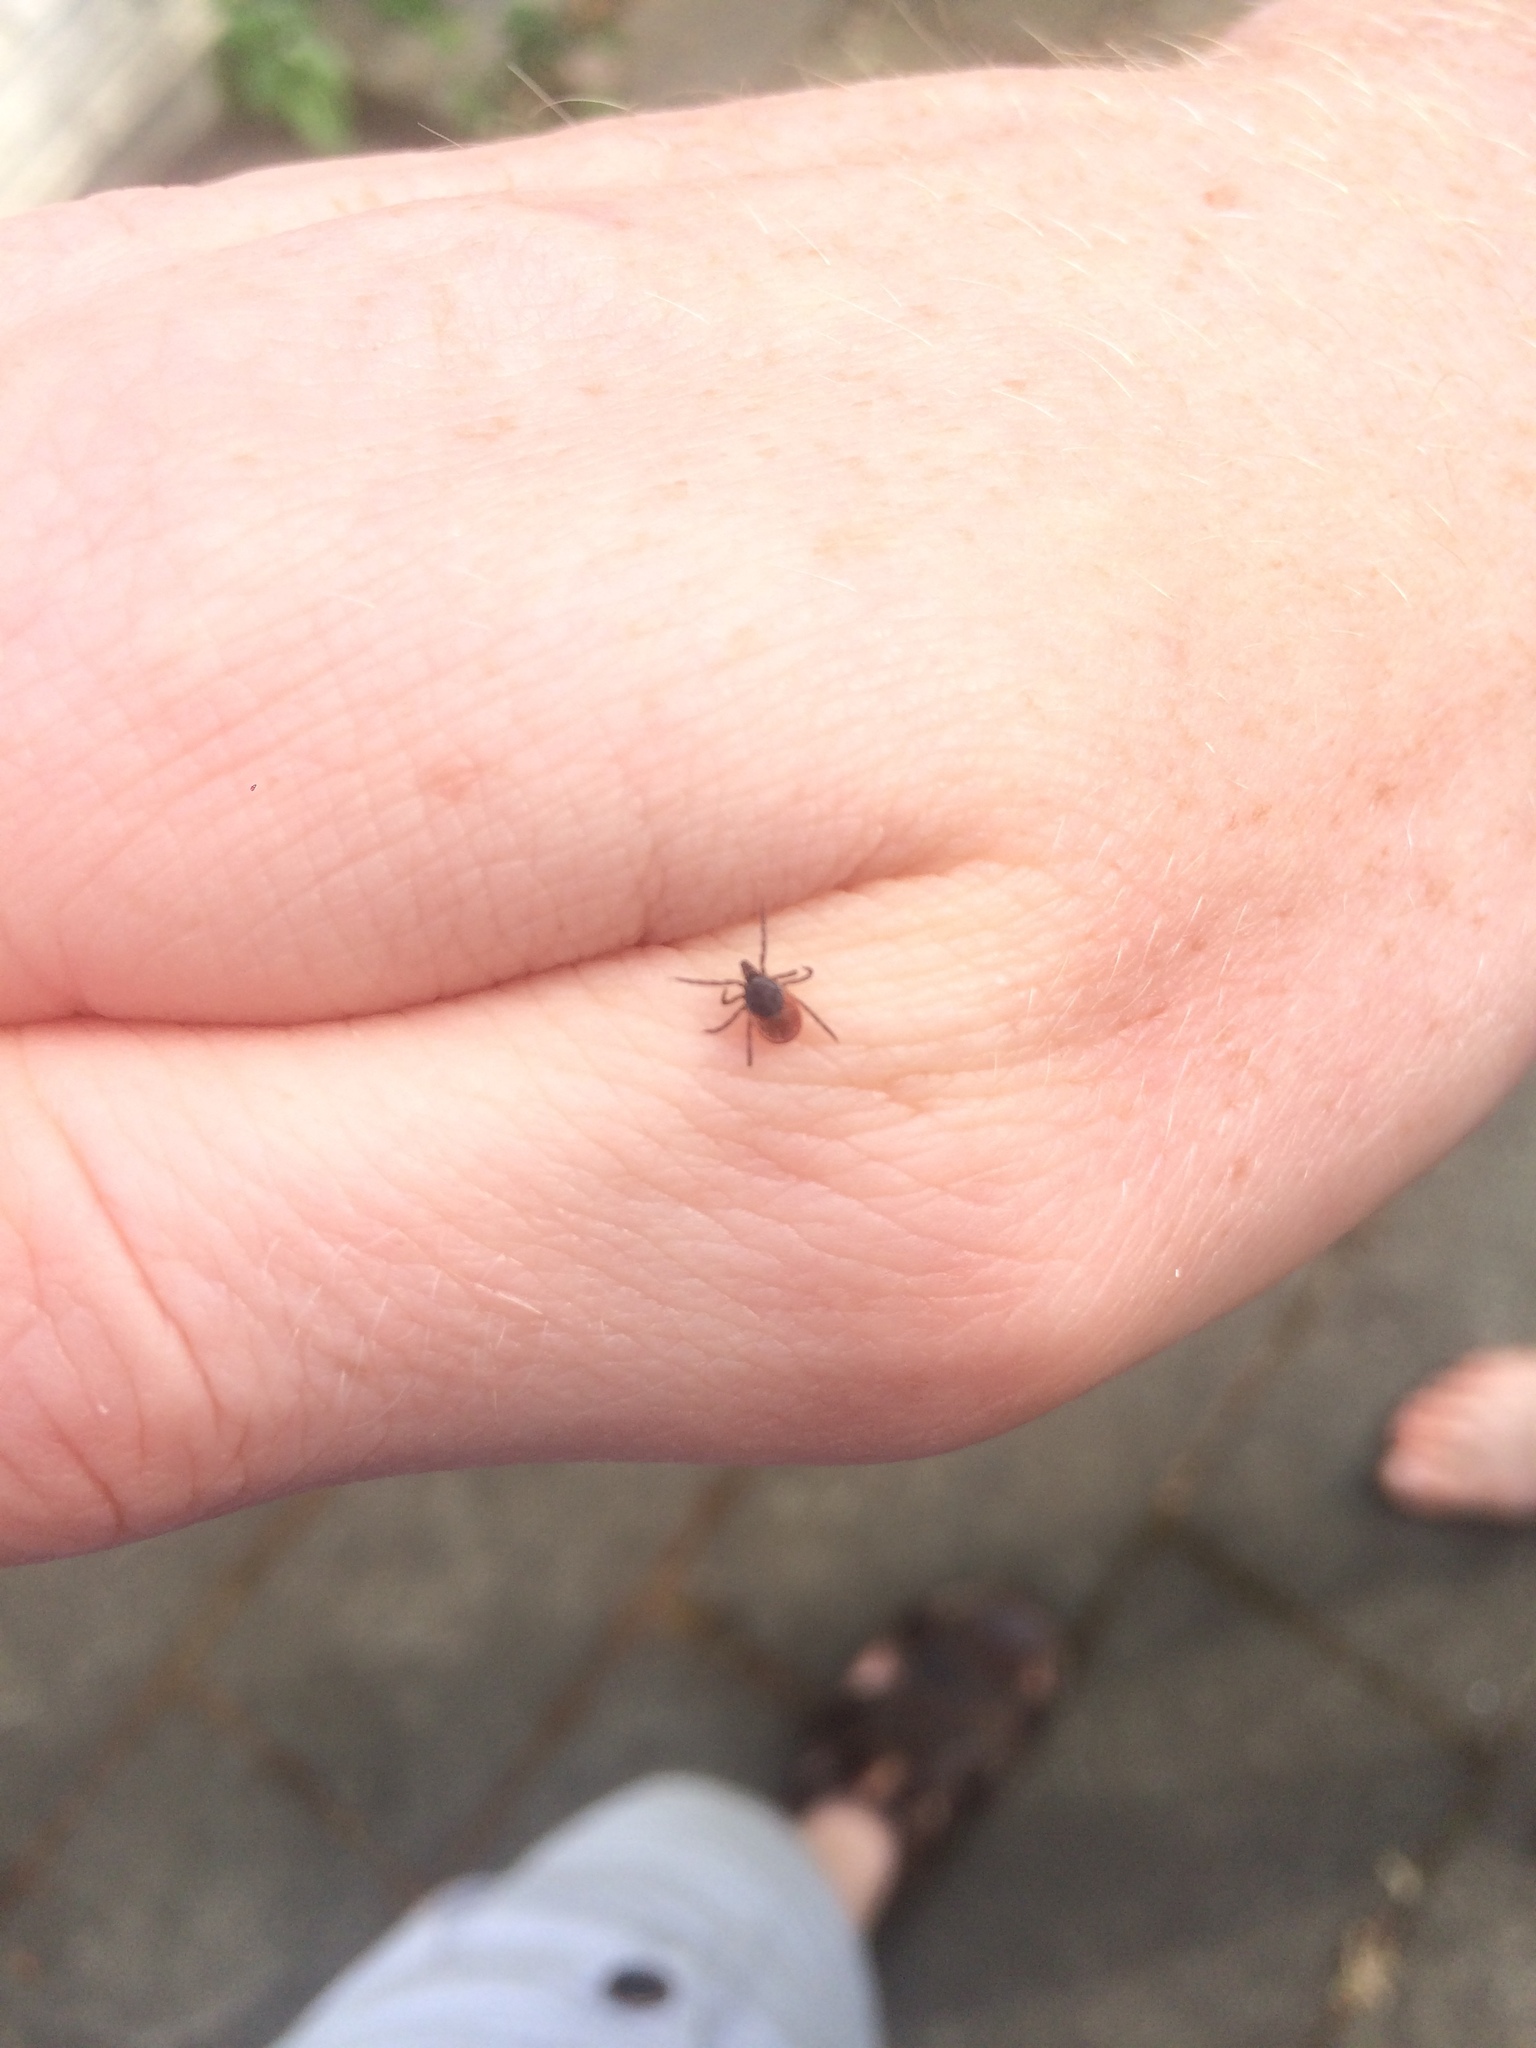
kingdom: Animalia
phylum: Arthropoda
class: Arachnida
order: Ixodida
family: Ixodidae
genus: Ixodes
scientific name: Ixodes ricinus
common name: Castor bean tick
